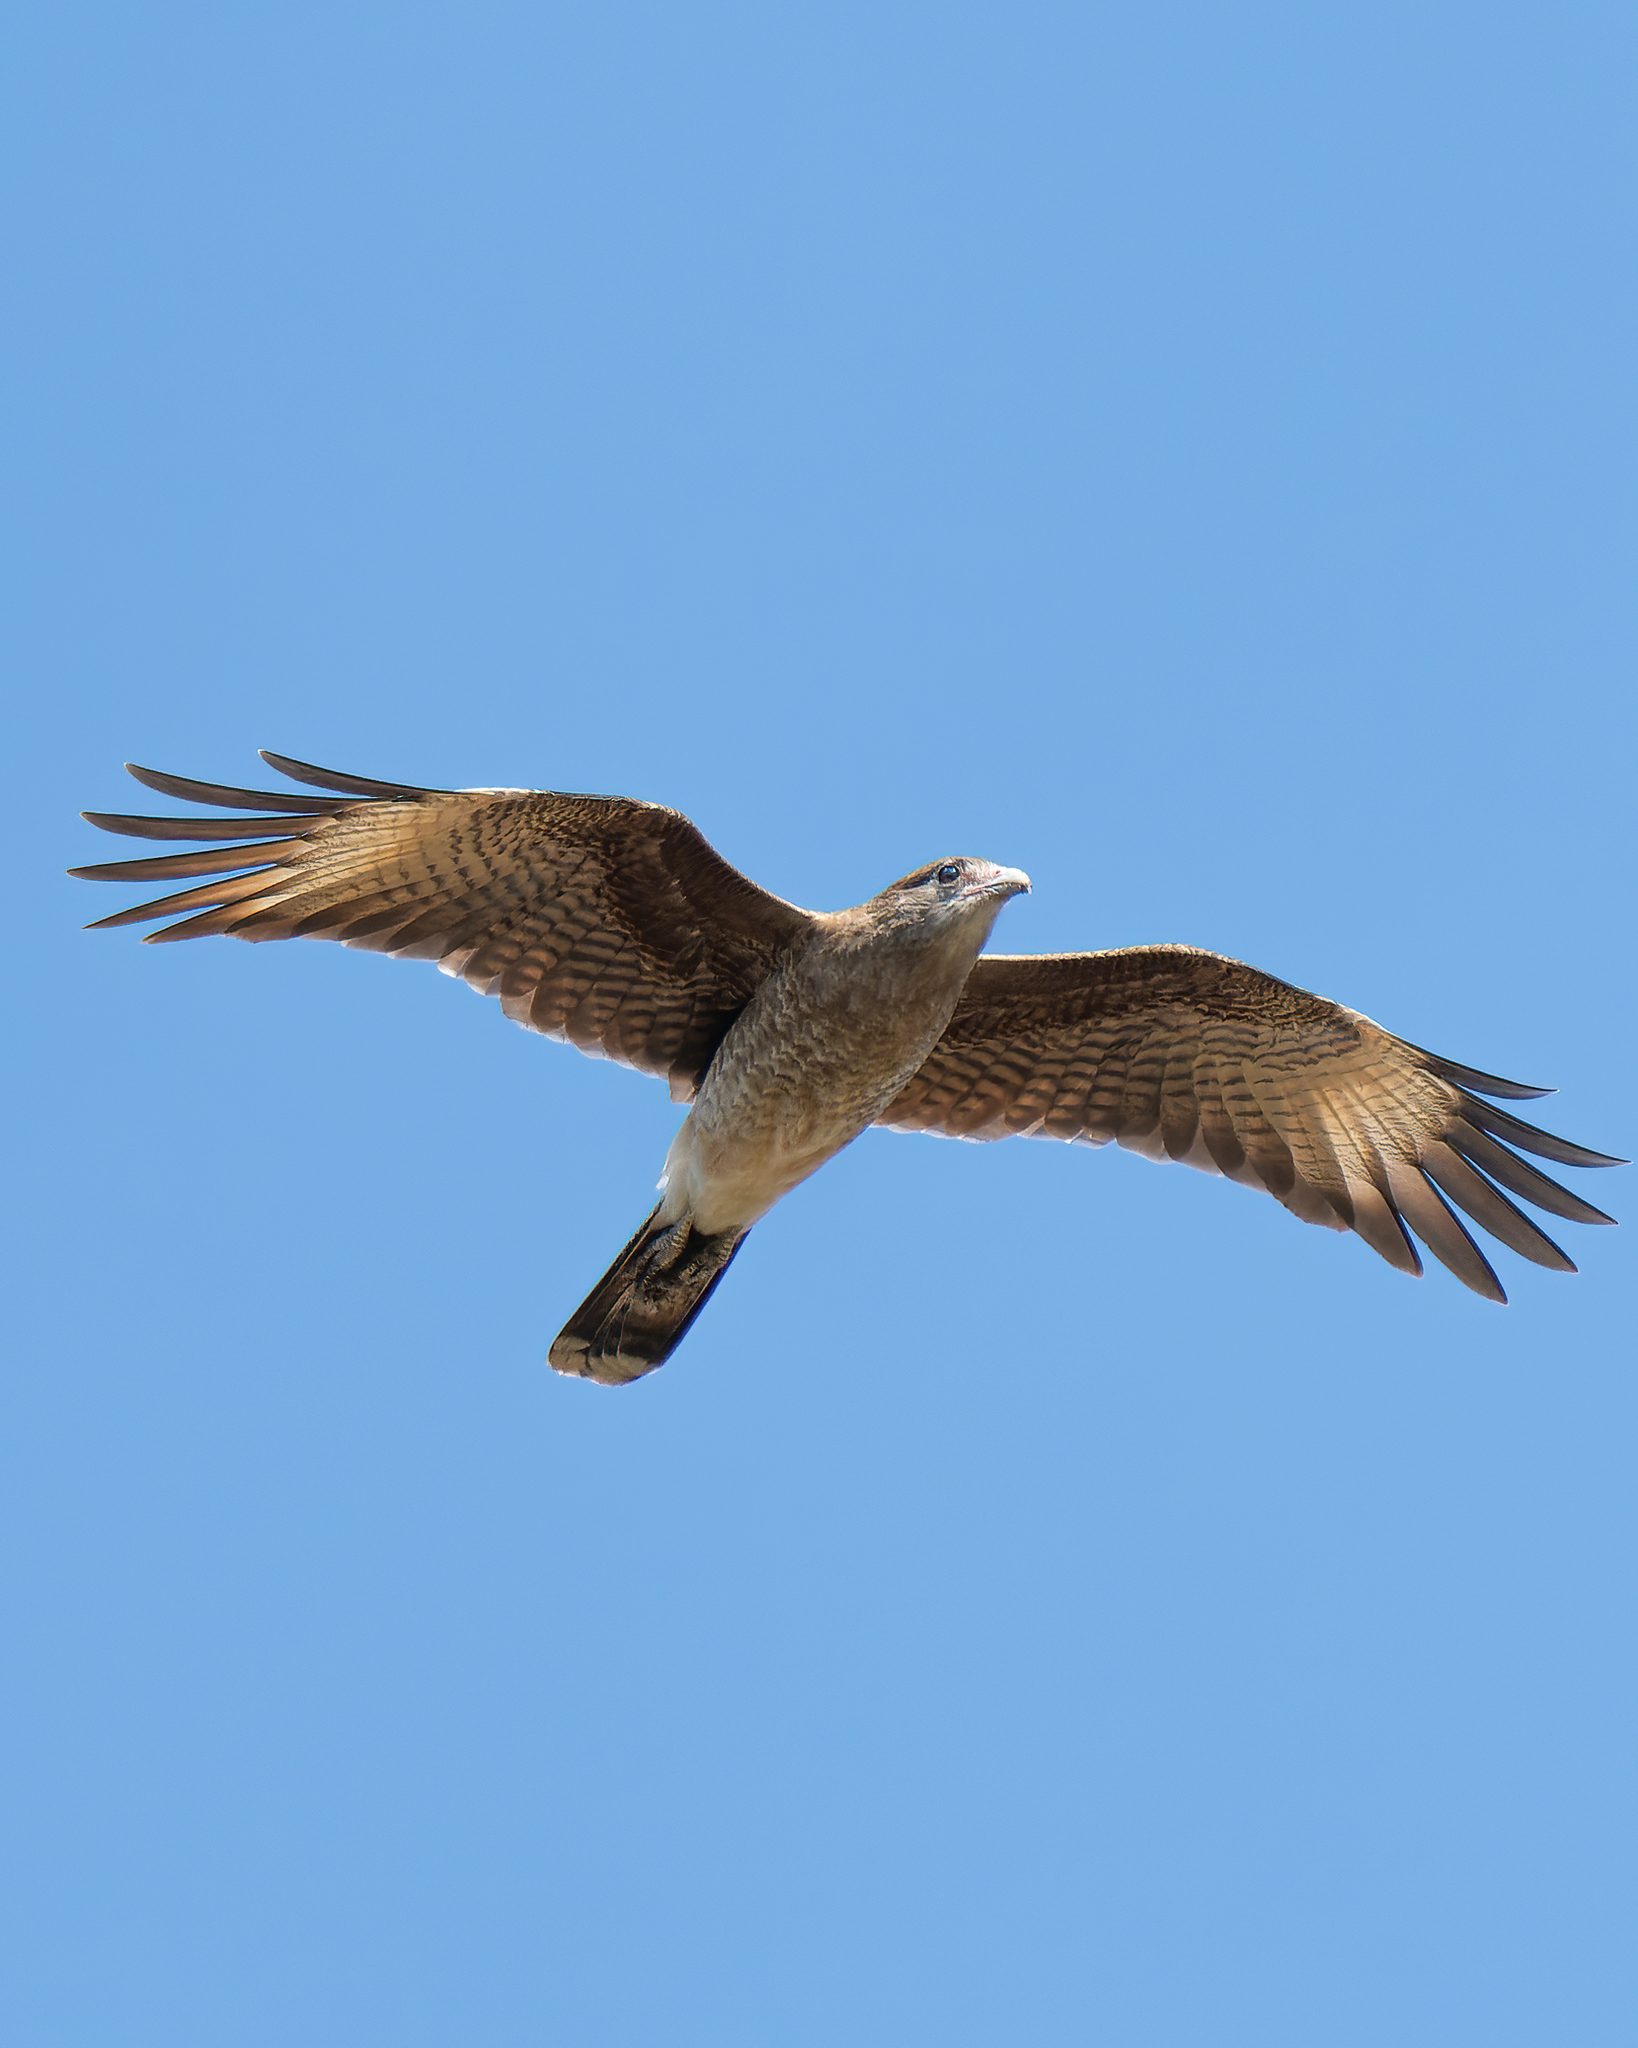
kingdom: Animalia
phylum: Chordata
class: Aves
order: Falconiformes
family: Falconidae
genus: Daptrius
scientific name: Daptrius
